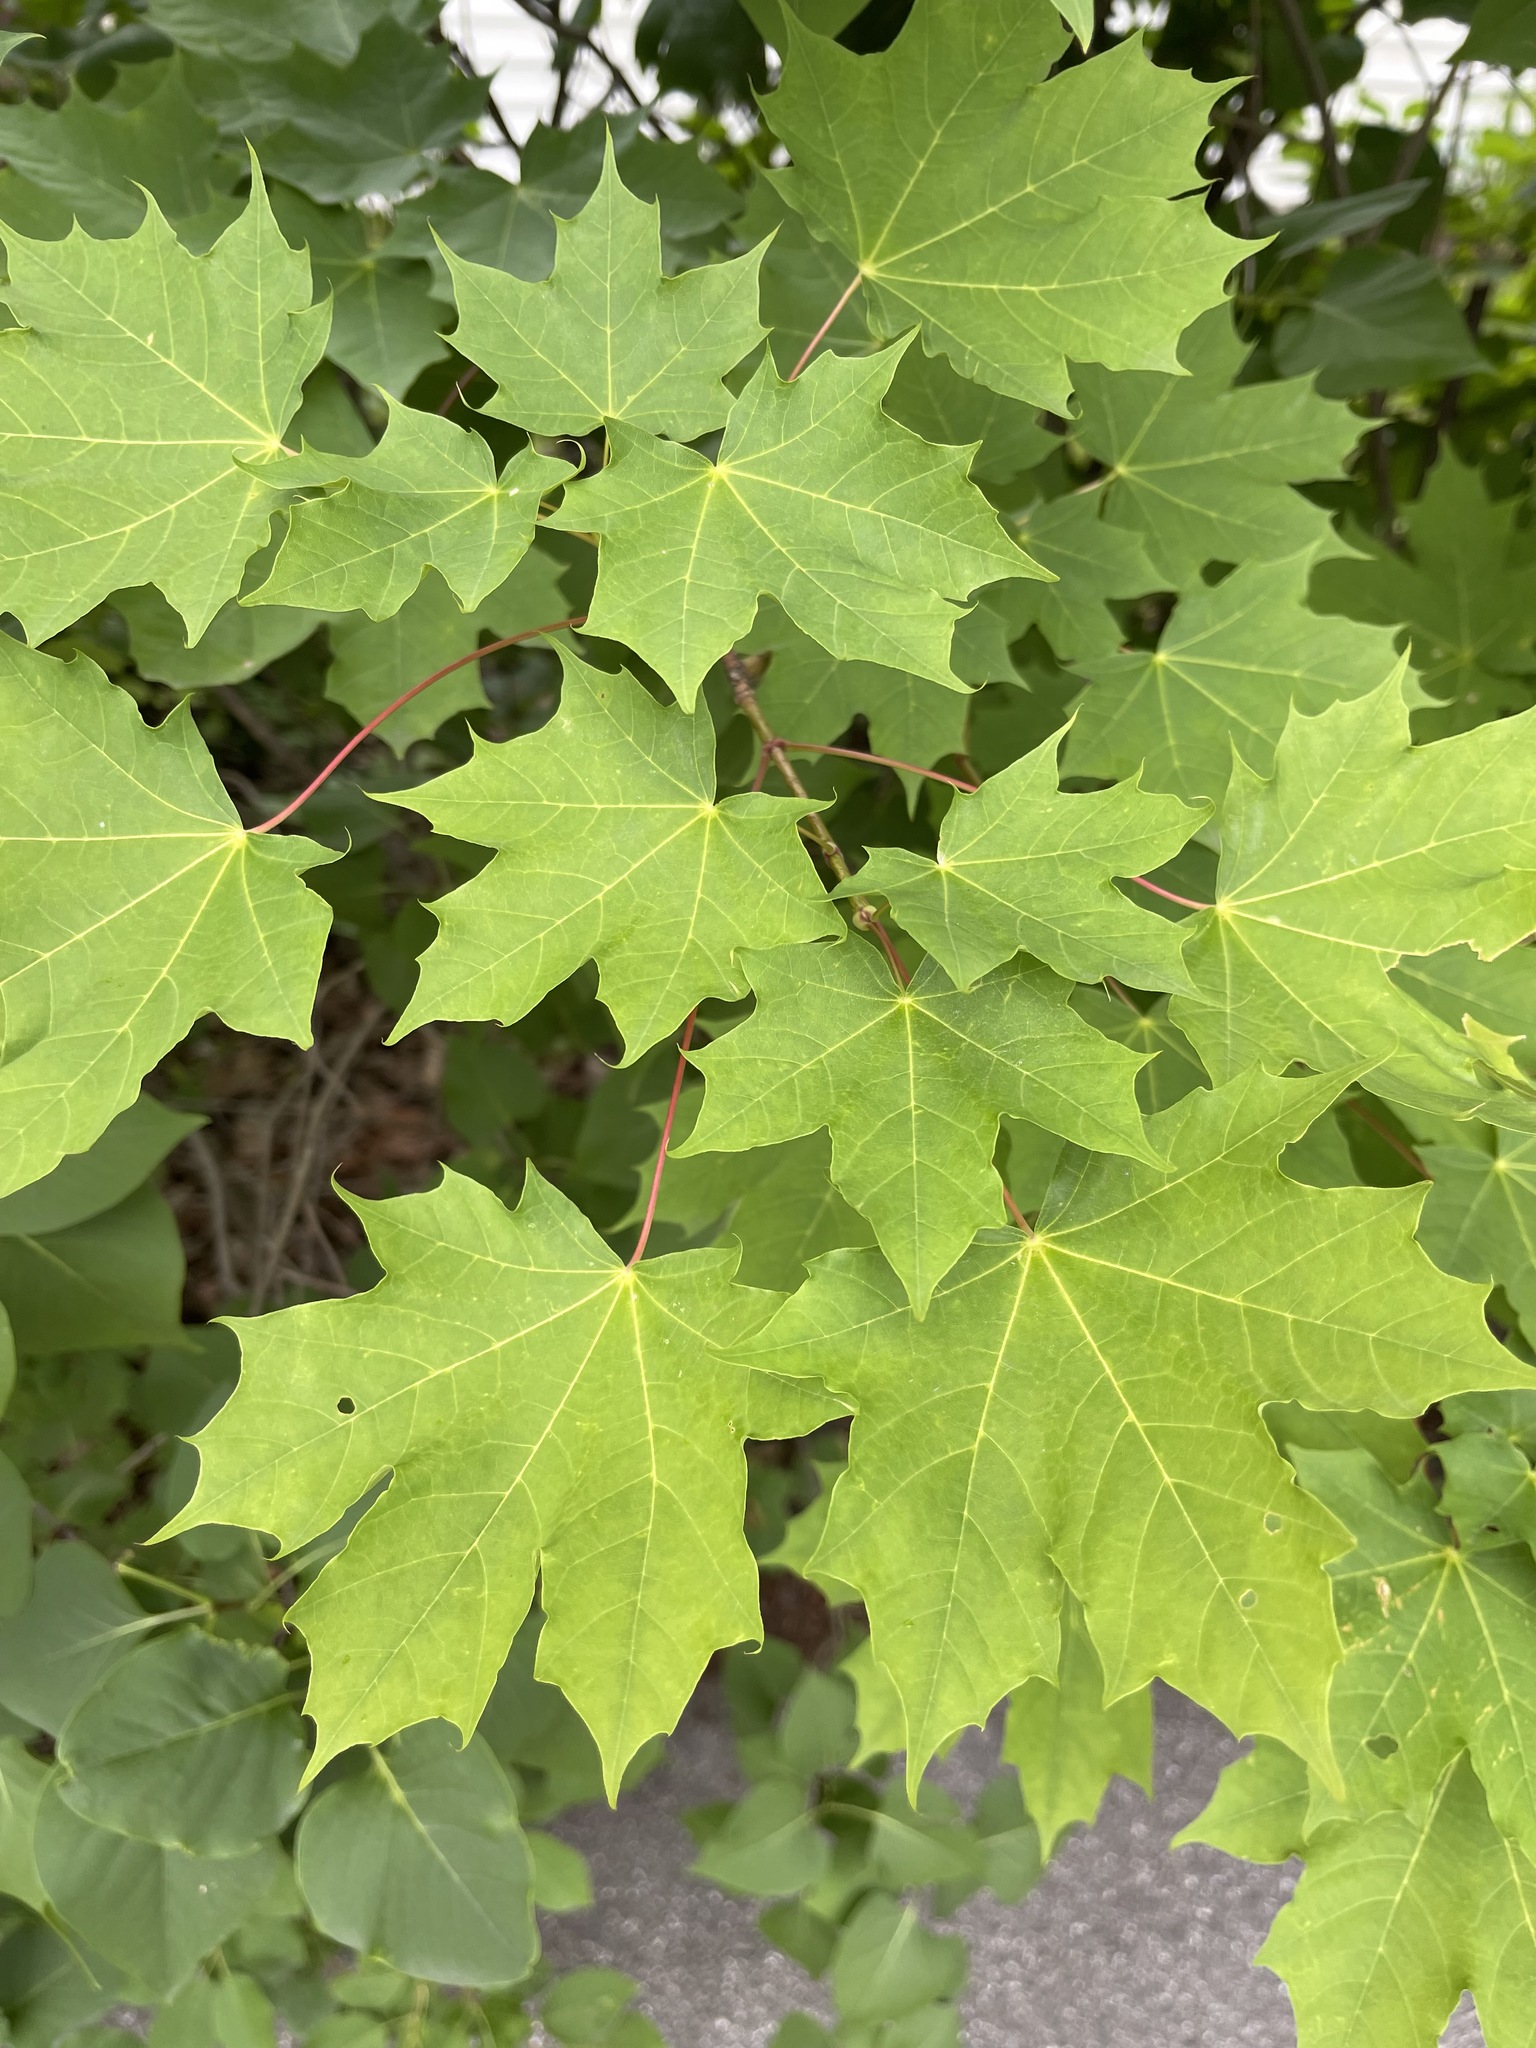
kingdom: Plantae
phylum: Tracheophyta
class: Magnoliopsida
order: Sapindales
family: Sapindaceae
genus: Acer
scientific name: Acer platanoides
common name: Norway maple
